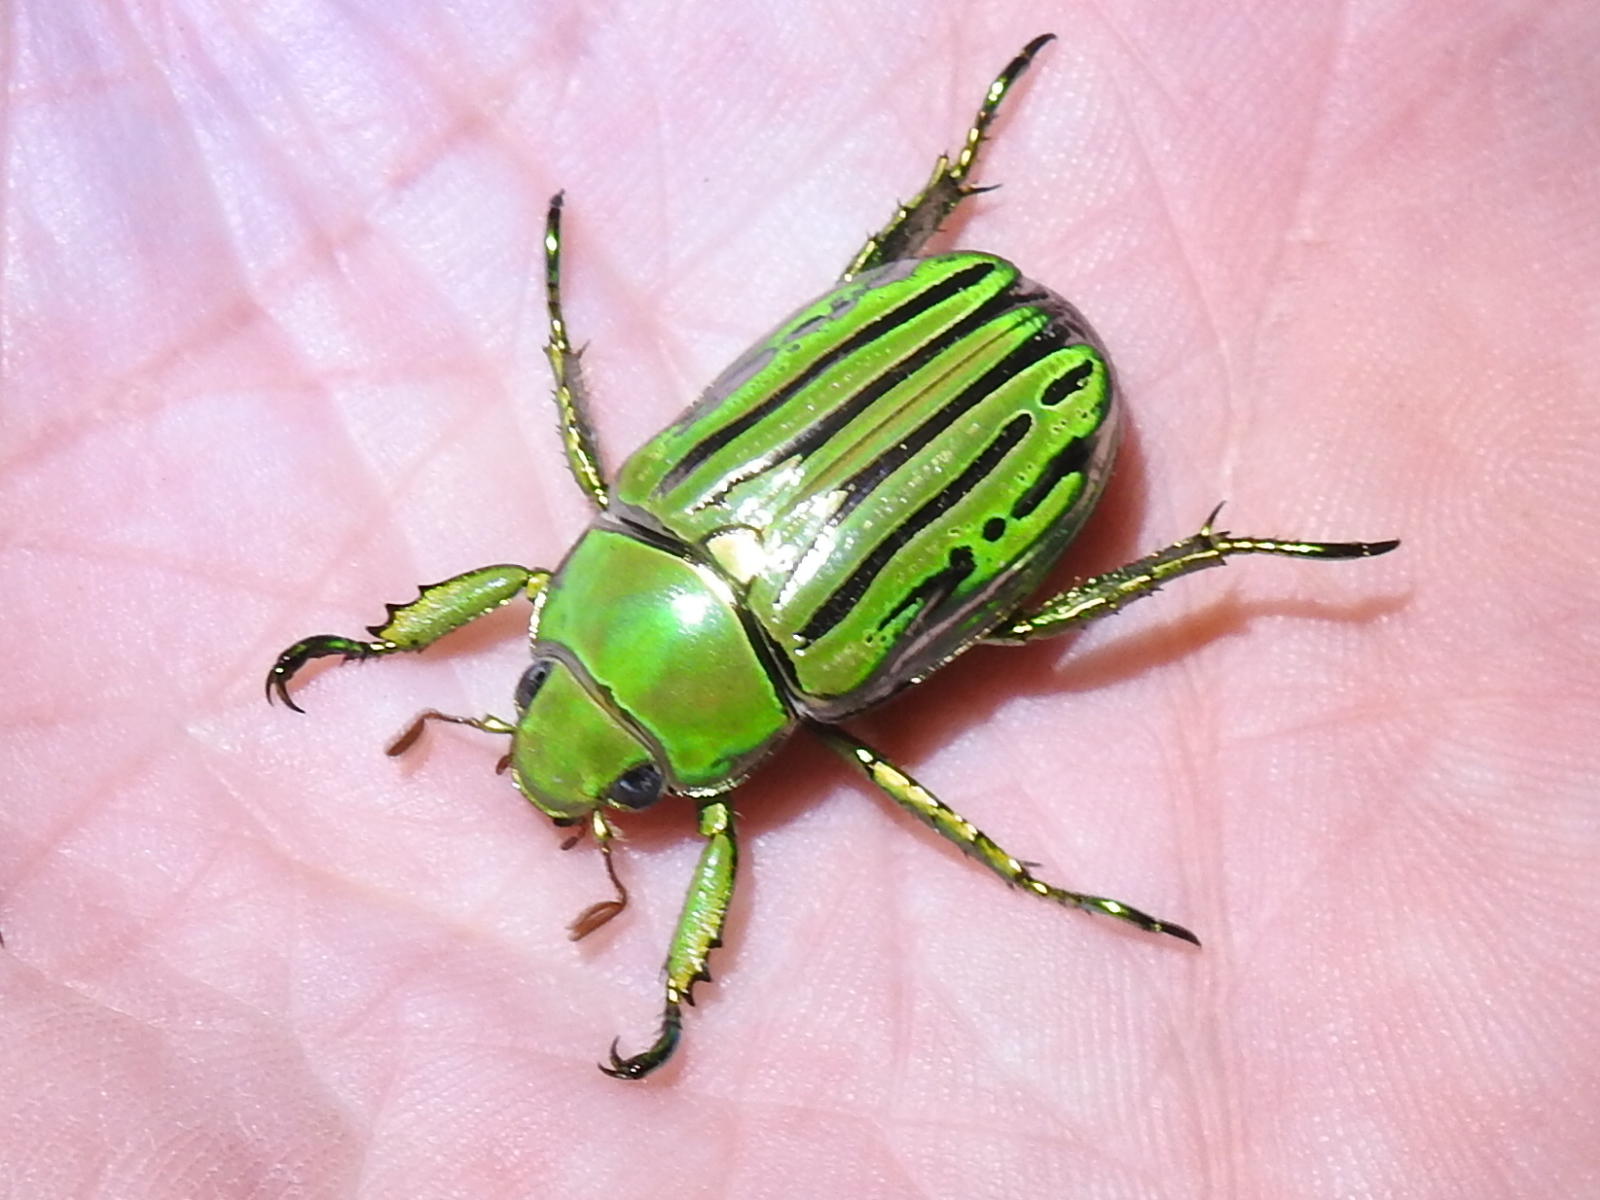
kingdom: Animalia
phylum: Arthropoda
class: Insecta
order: Coleoptera
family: Scarabaeidae
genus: Chrysina
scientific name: Chrysina gloriosa
